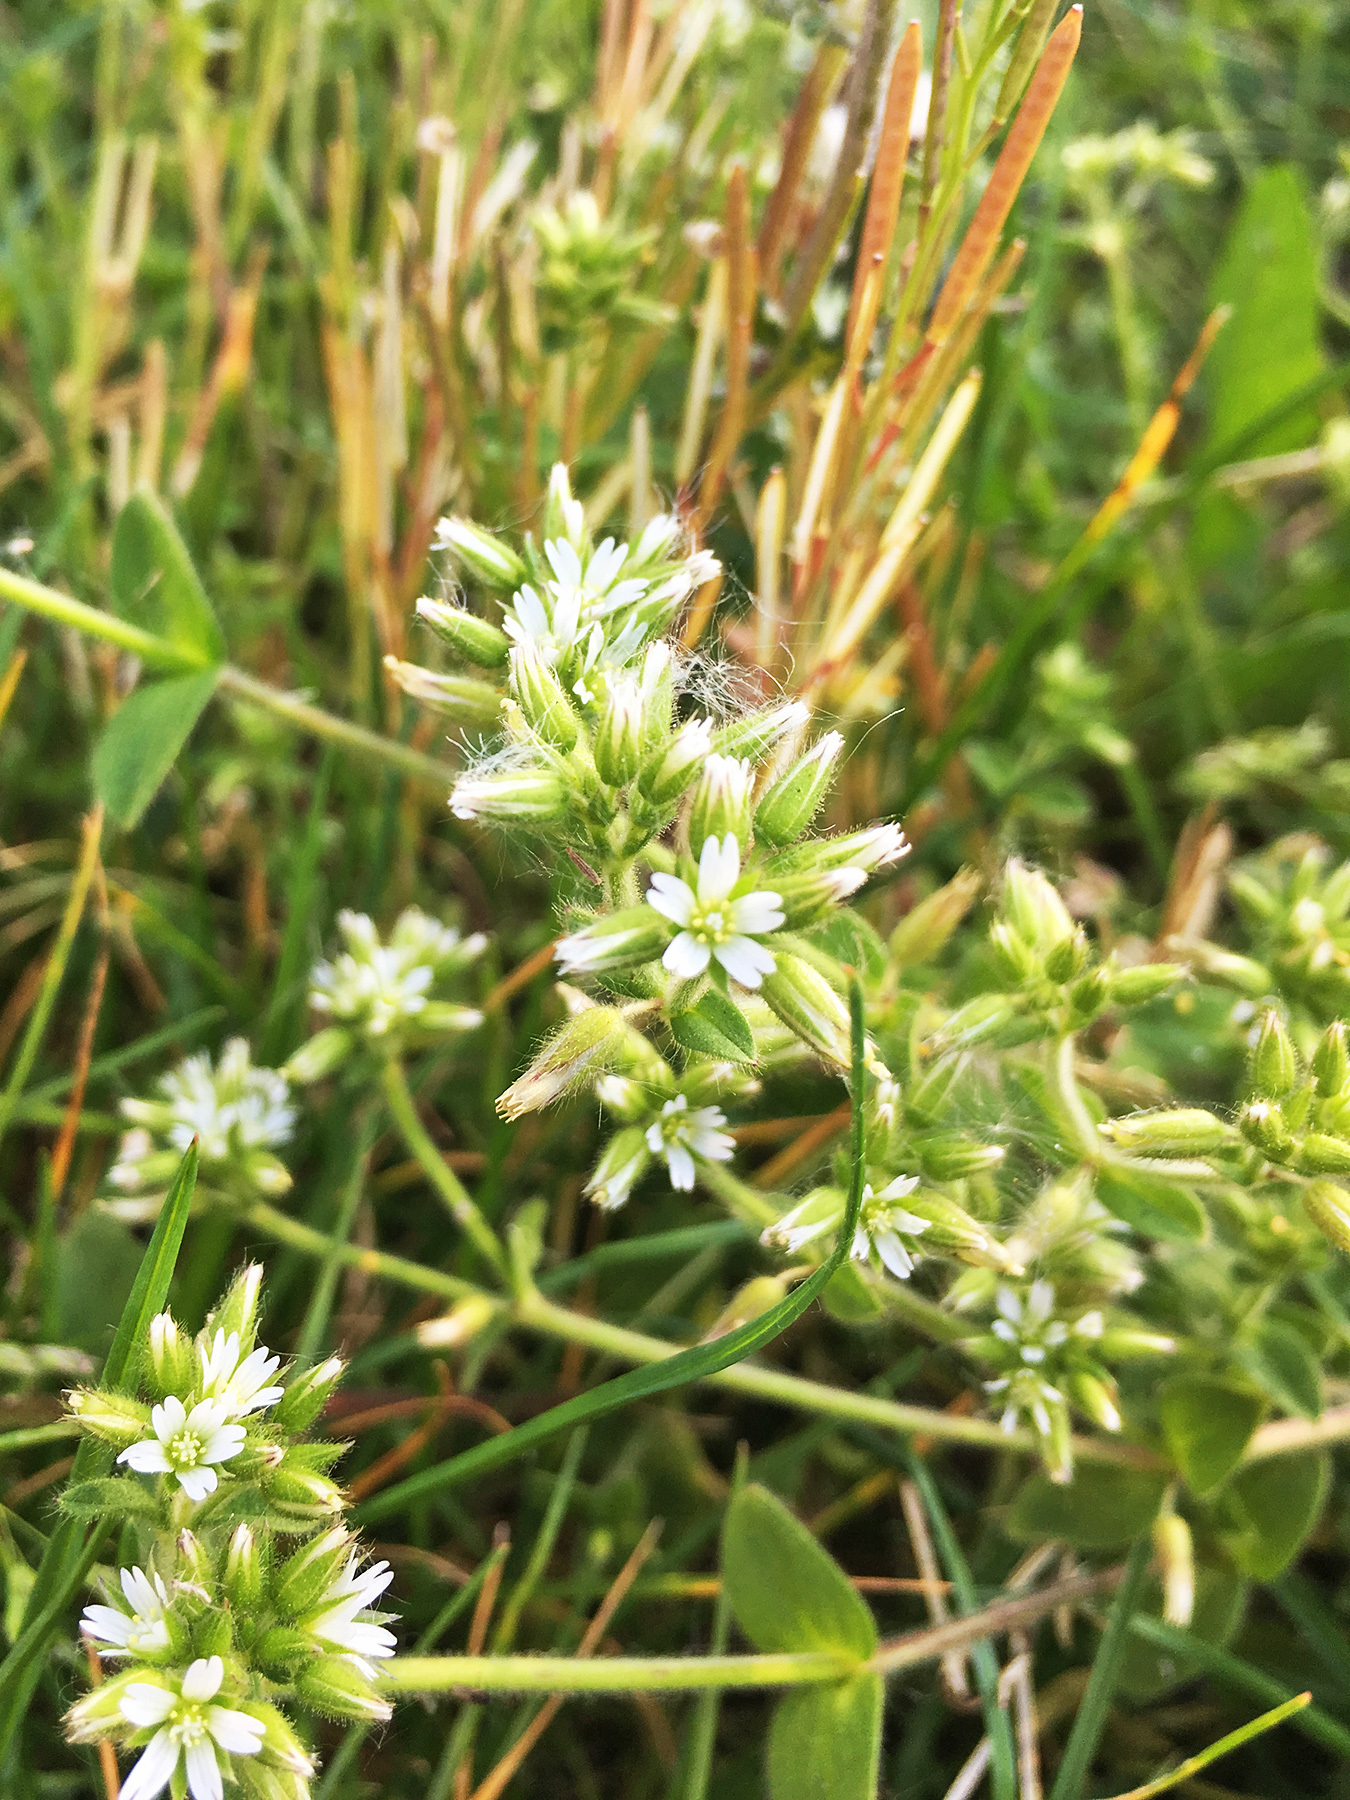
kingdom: Plantae
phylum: Tracheophyta
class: Magnoliopsida
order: Caryophyllales
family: Caryophyllaceae
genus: Cerastium
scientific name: Cerastium glomeratum
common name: Sticky chickweed
